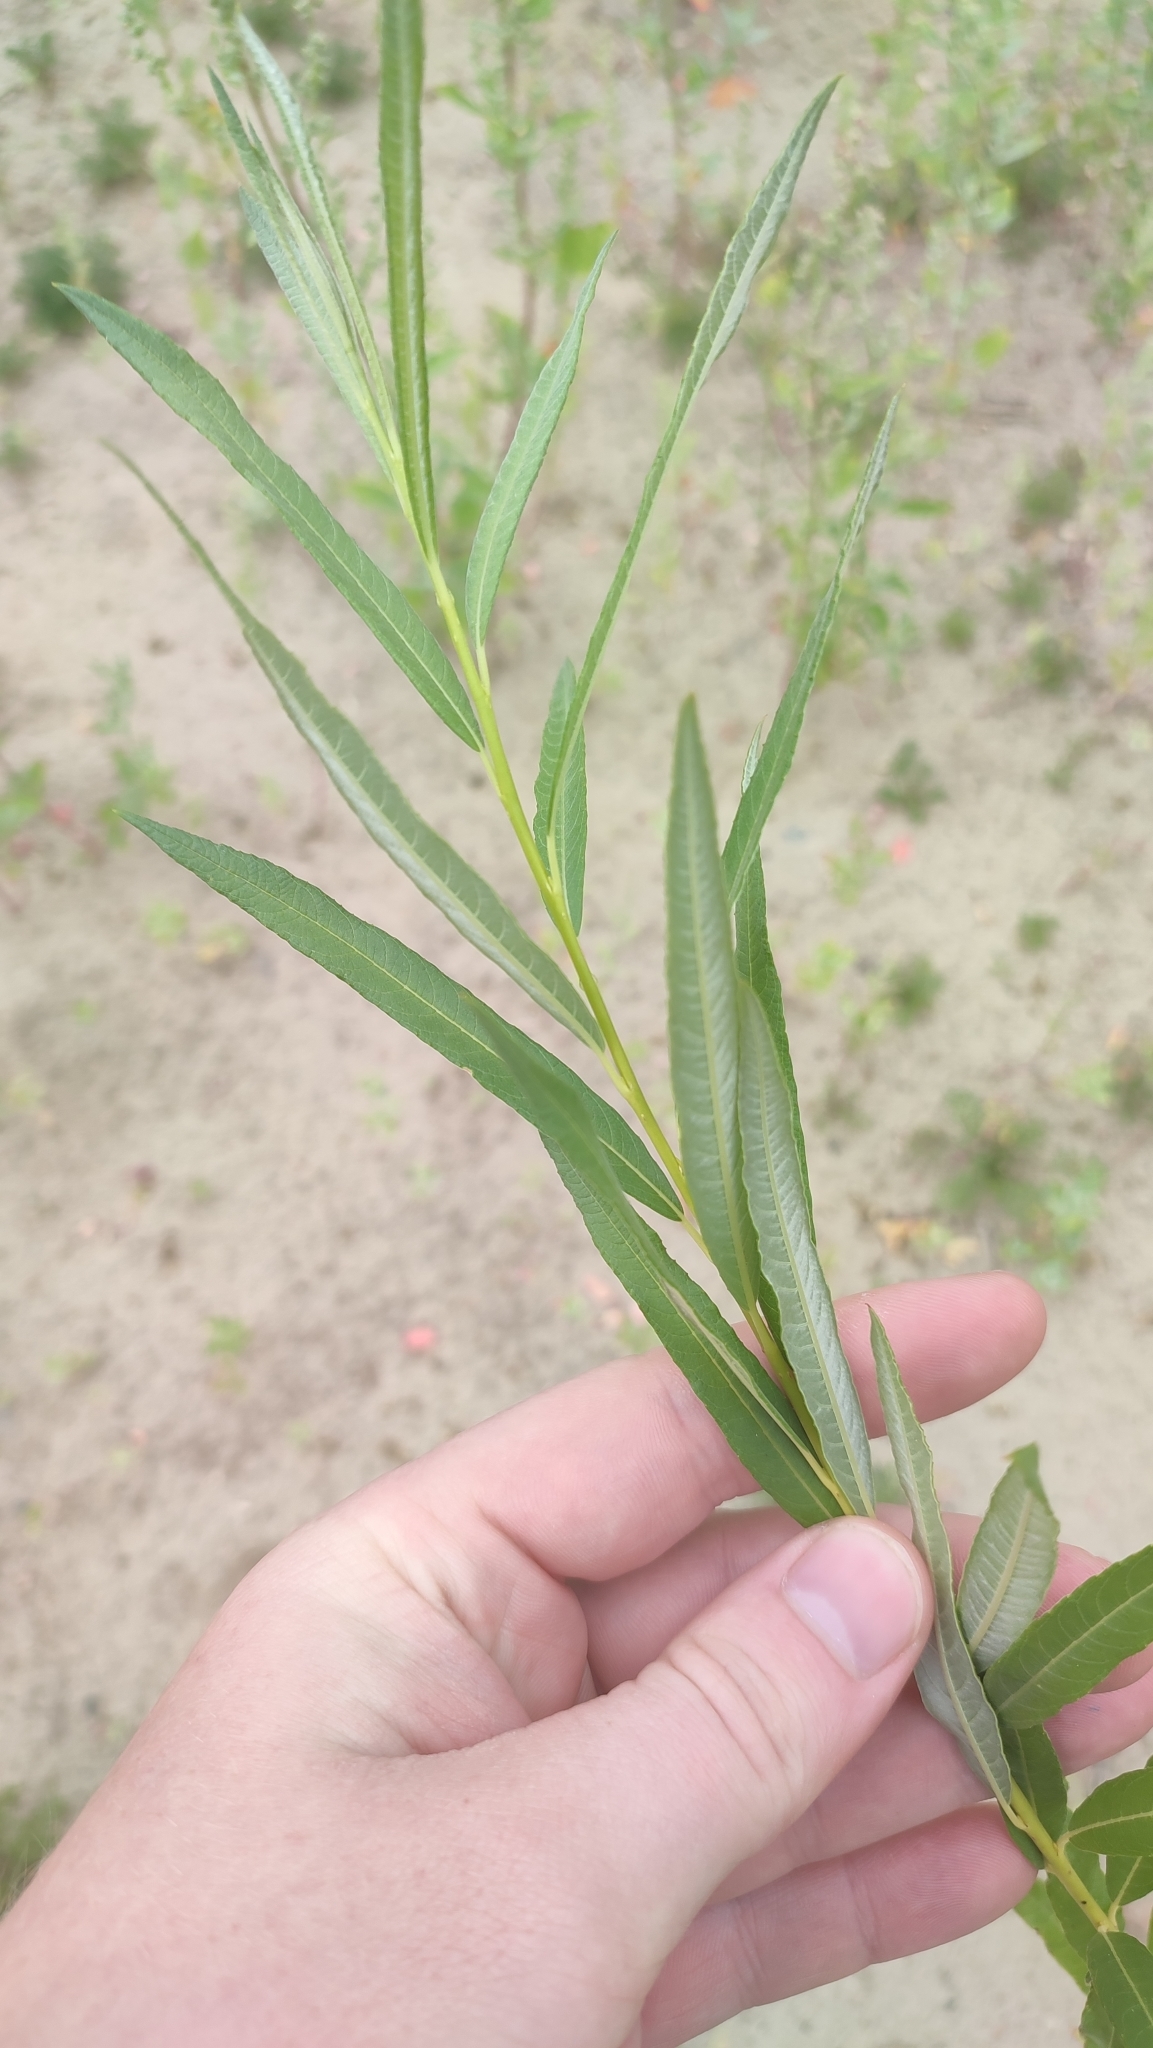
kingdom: Plantae
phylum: Tracheophyta
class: Magnoliopsida
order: Malpighiales
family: Salicaceae
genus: Salix
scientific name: Salix viminalis
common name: Osier
